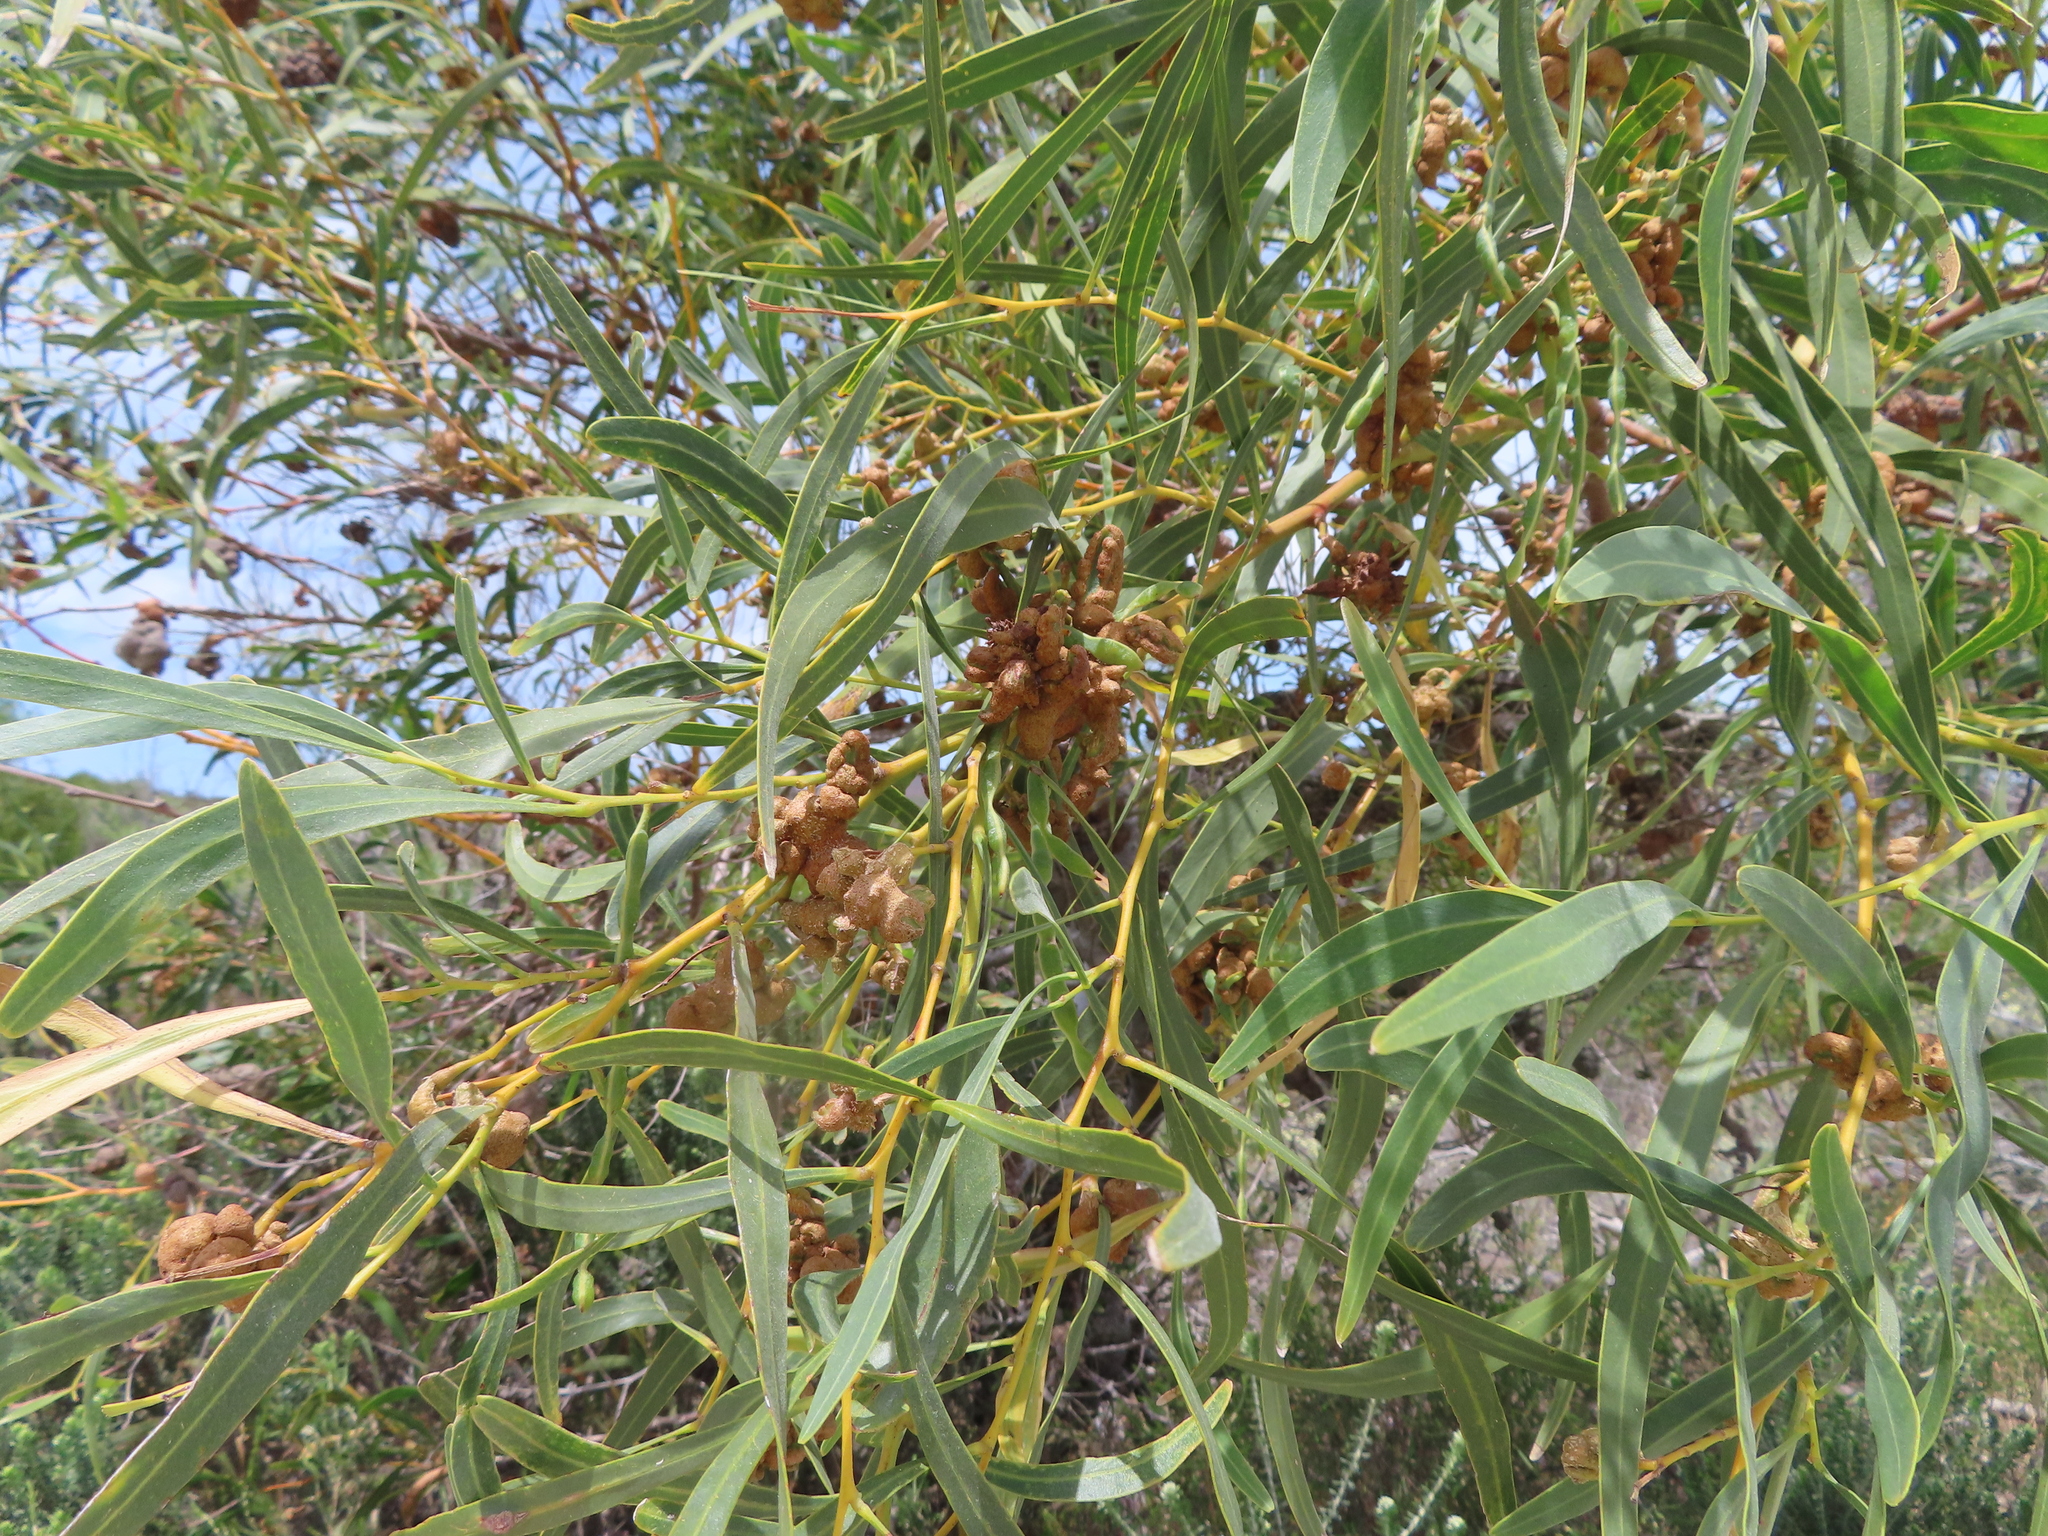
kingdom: Fungi
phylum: Basidiomycota
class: Pucciniomycetes
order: Pucciniales
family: Uromycladiaceae
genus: Uromycladium
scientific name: Uromycladium morrisii
